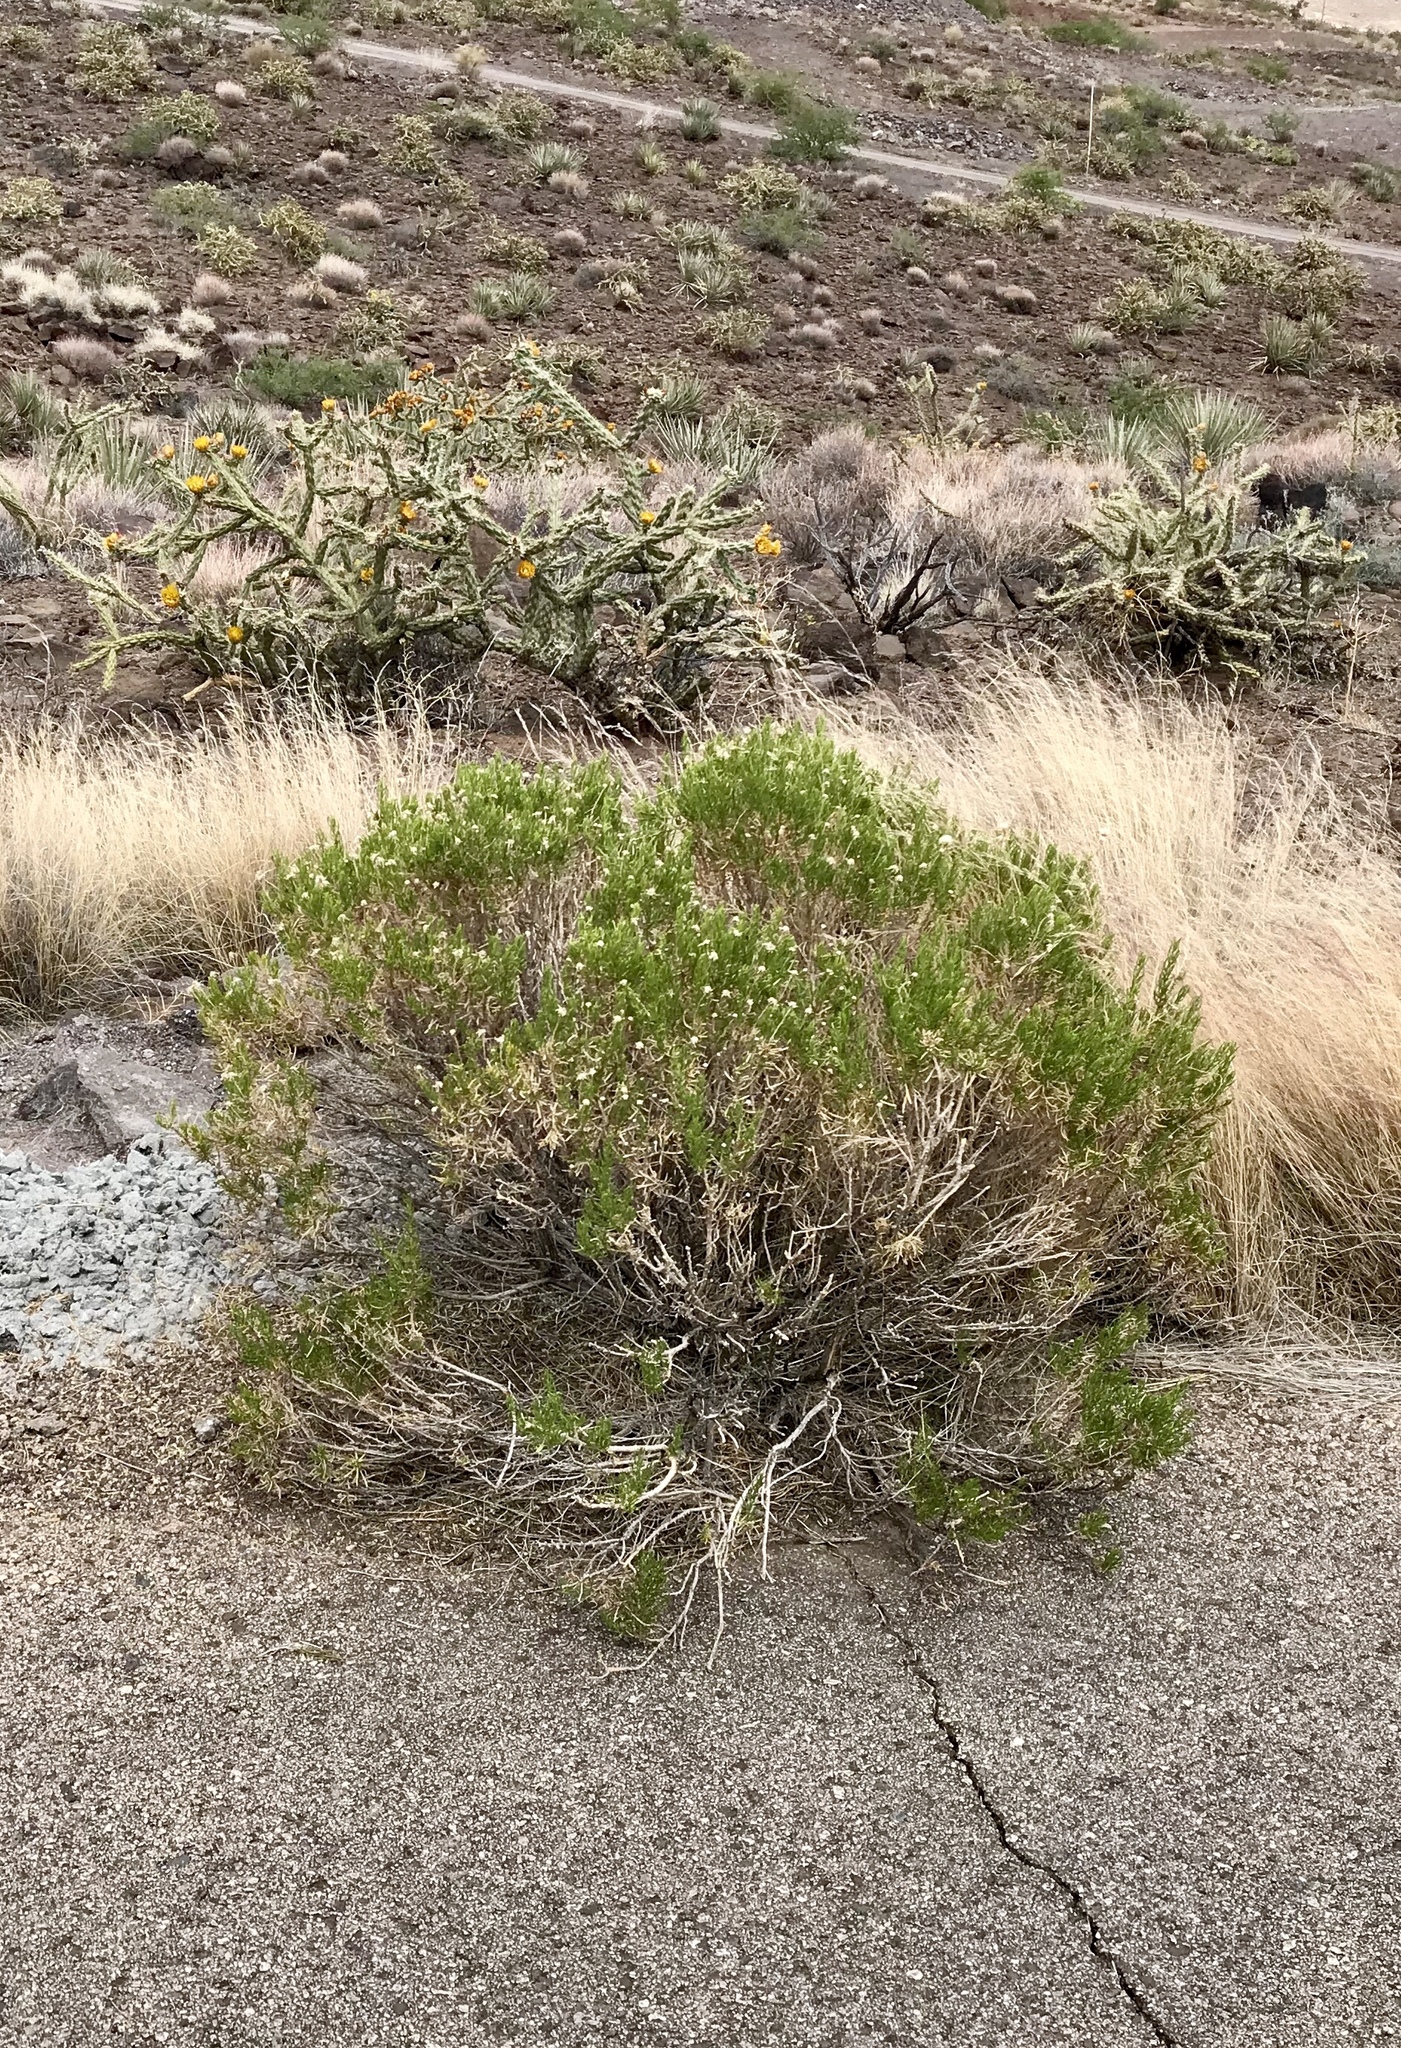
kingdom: Plantae
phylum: Tracheophyta
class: Magnoliopsida
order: Asterales
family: Asteraceae
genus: Ericameria
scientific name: Ericameria linearifolia
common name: Interior goldenbush
